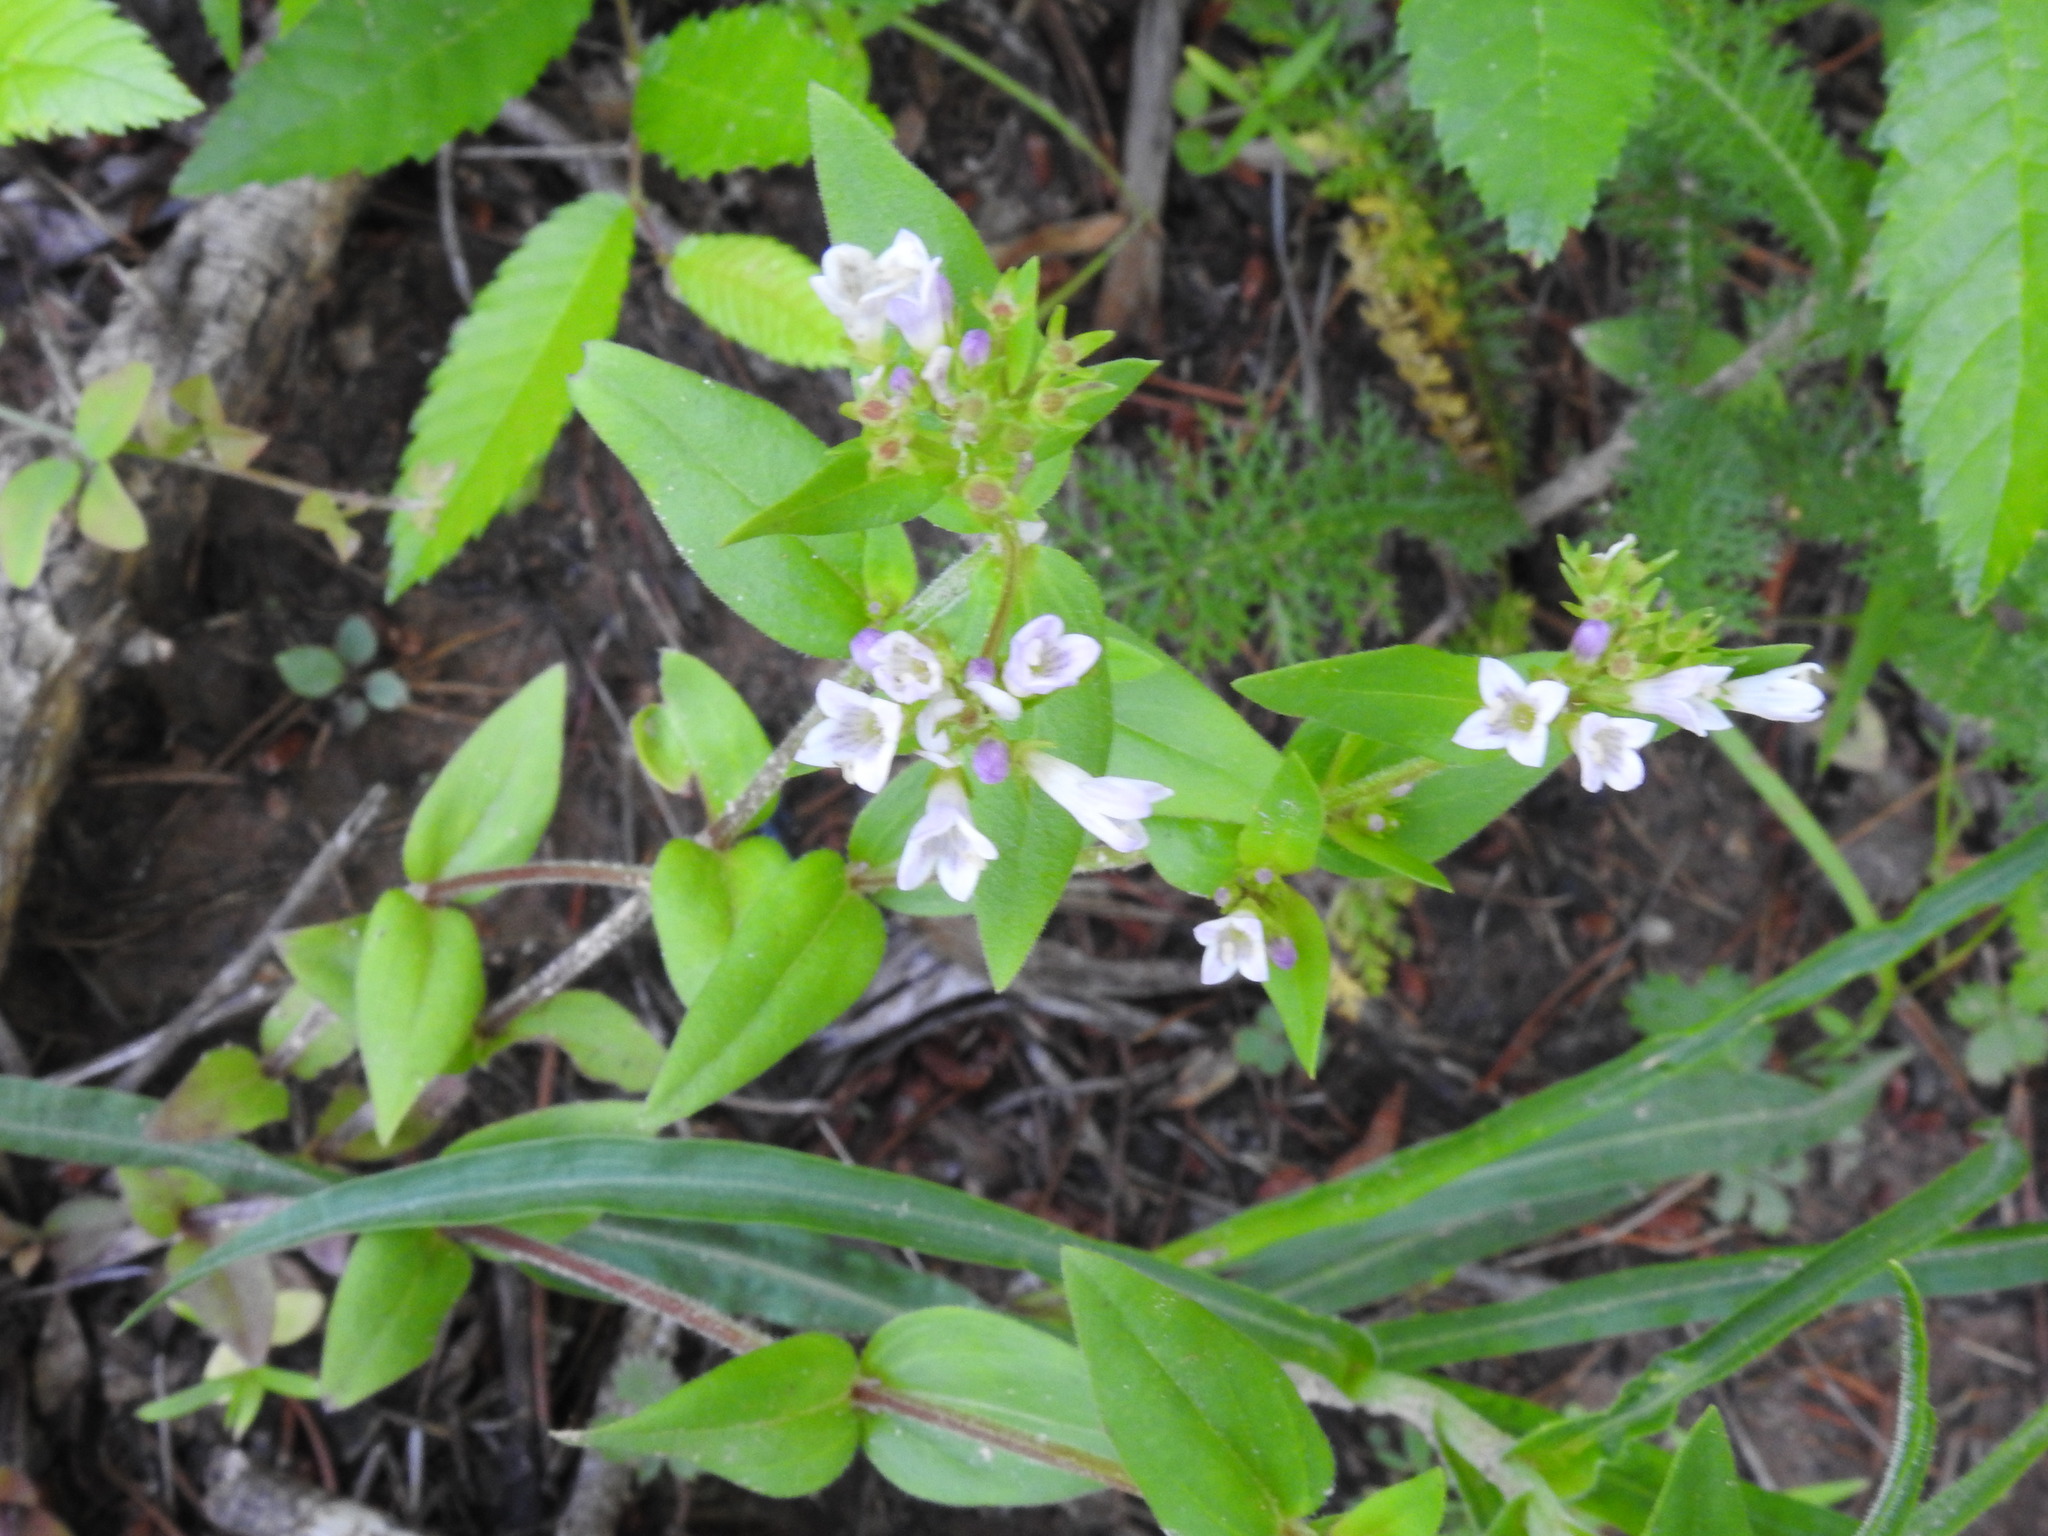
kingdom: Plantae
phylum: Tracheophyta
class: Magnoliopsida
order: Gentianales
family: Rubiaceae
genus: Houstonia
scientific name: Houstonia purpurea
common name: Summer bluet
